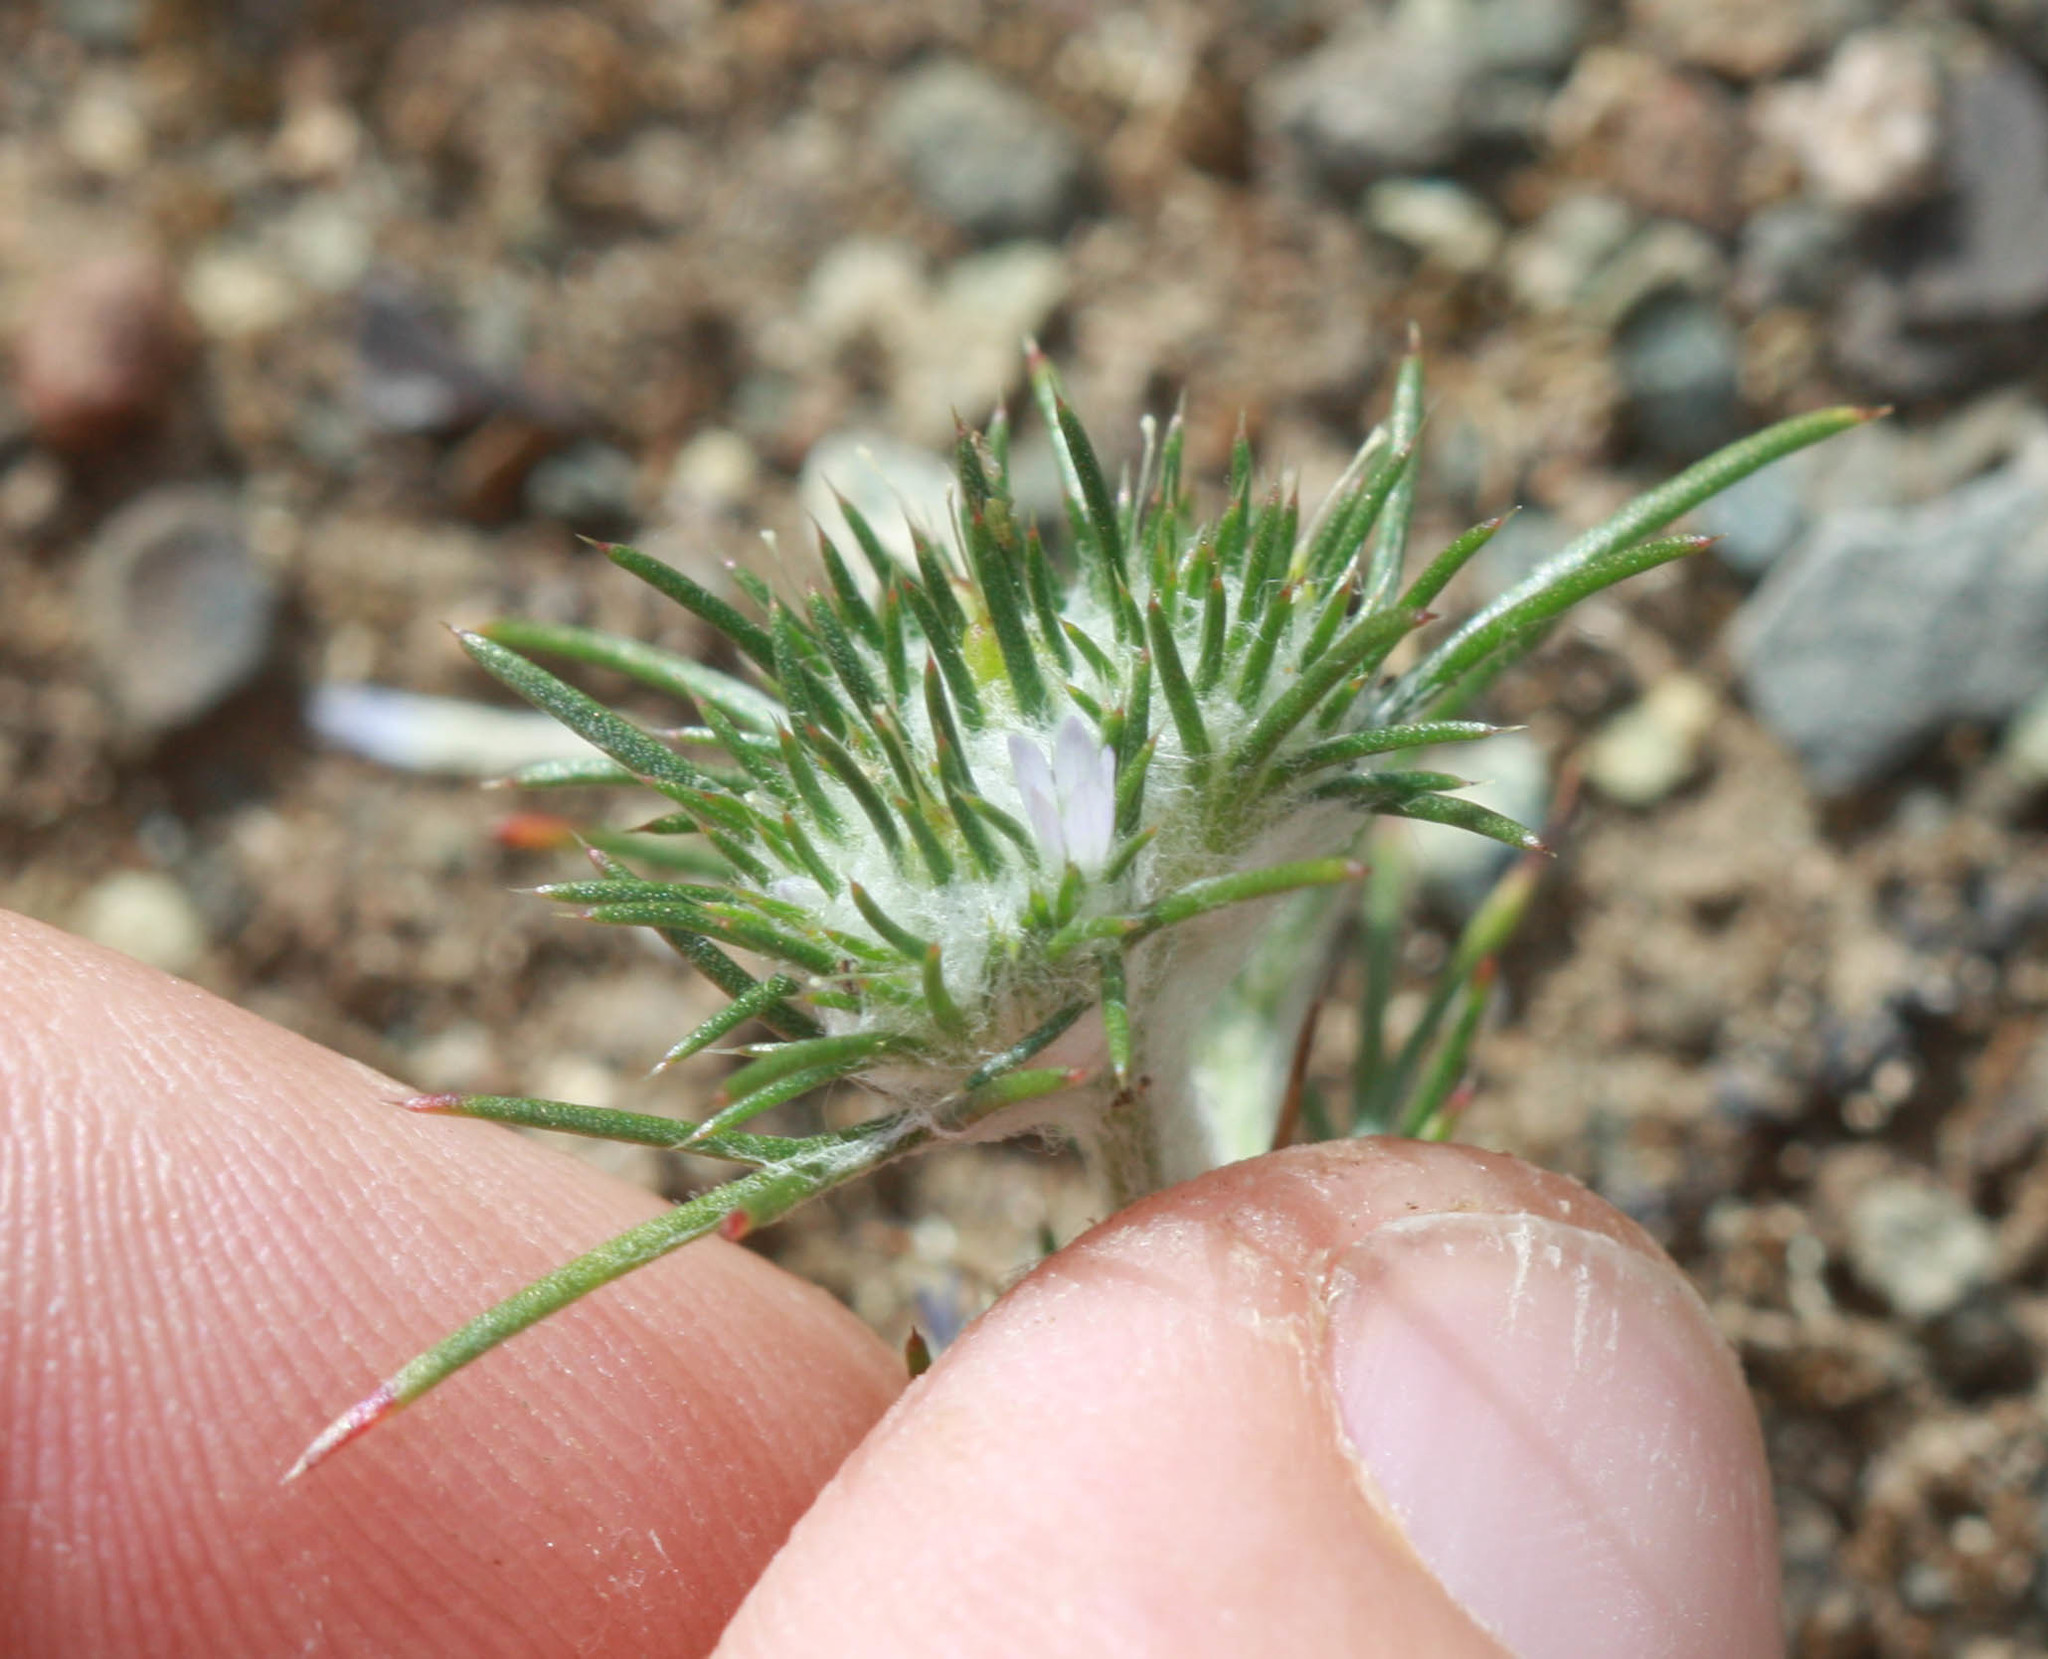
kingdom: Plantae
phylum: Tracheophyta
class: Magnoliopsida
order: Ericales
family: Polemoniaceae
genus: Eriastrum
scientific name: Eriastrum abramsii
